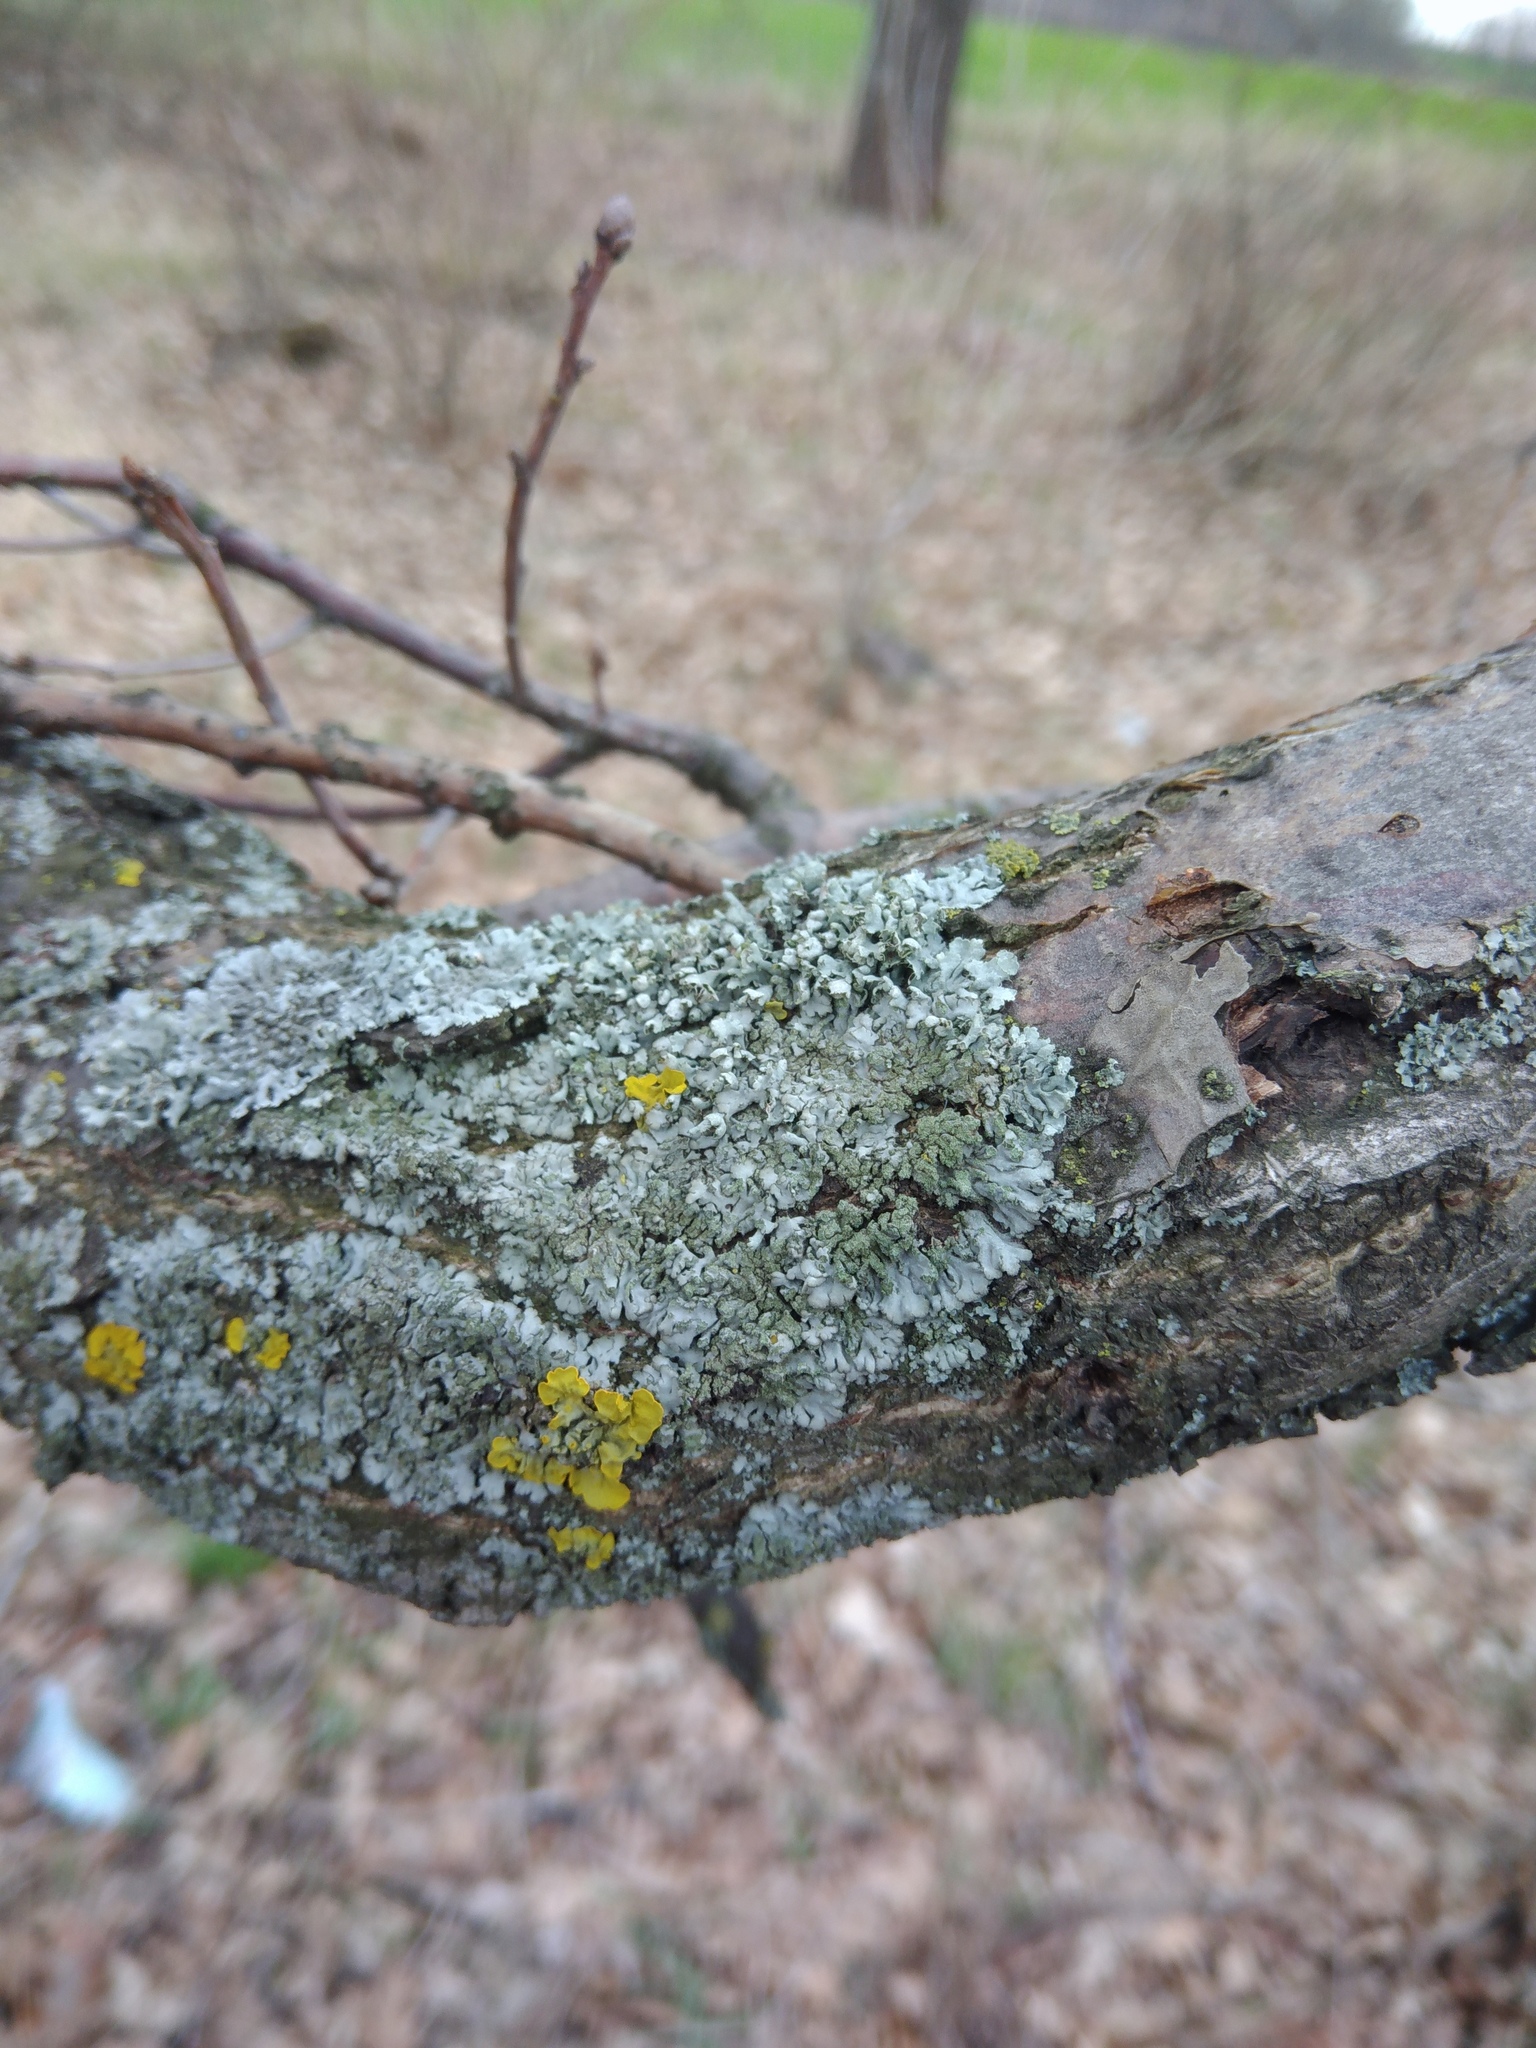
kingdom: Fungi
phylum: Ascomycota
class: Lecanoromycetes
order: Caliciales
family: Physciaceae
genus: Phaeophyscia
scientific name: Phaeophyscia orbicularis
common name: Mealy shadow lichen
